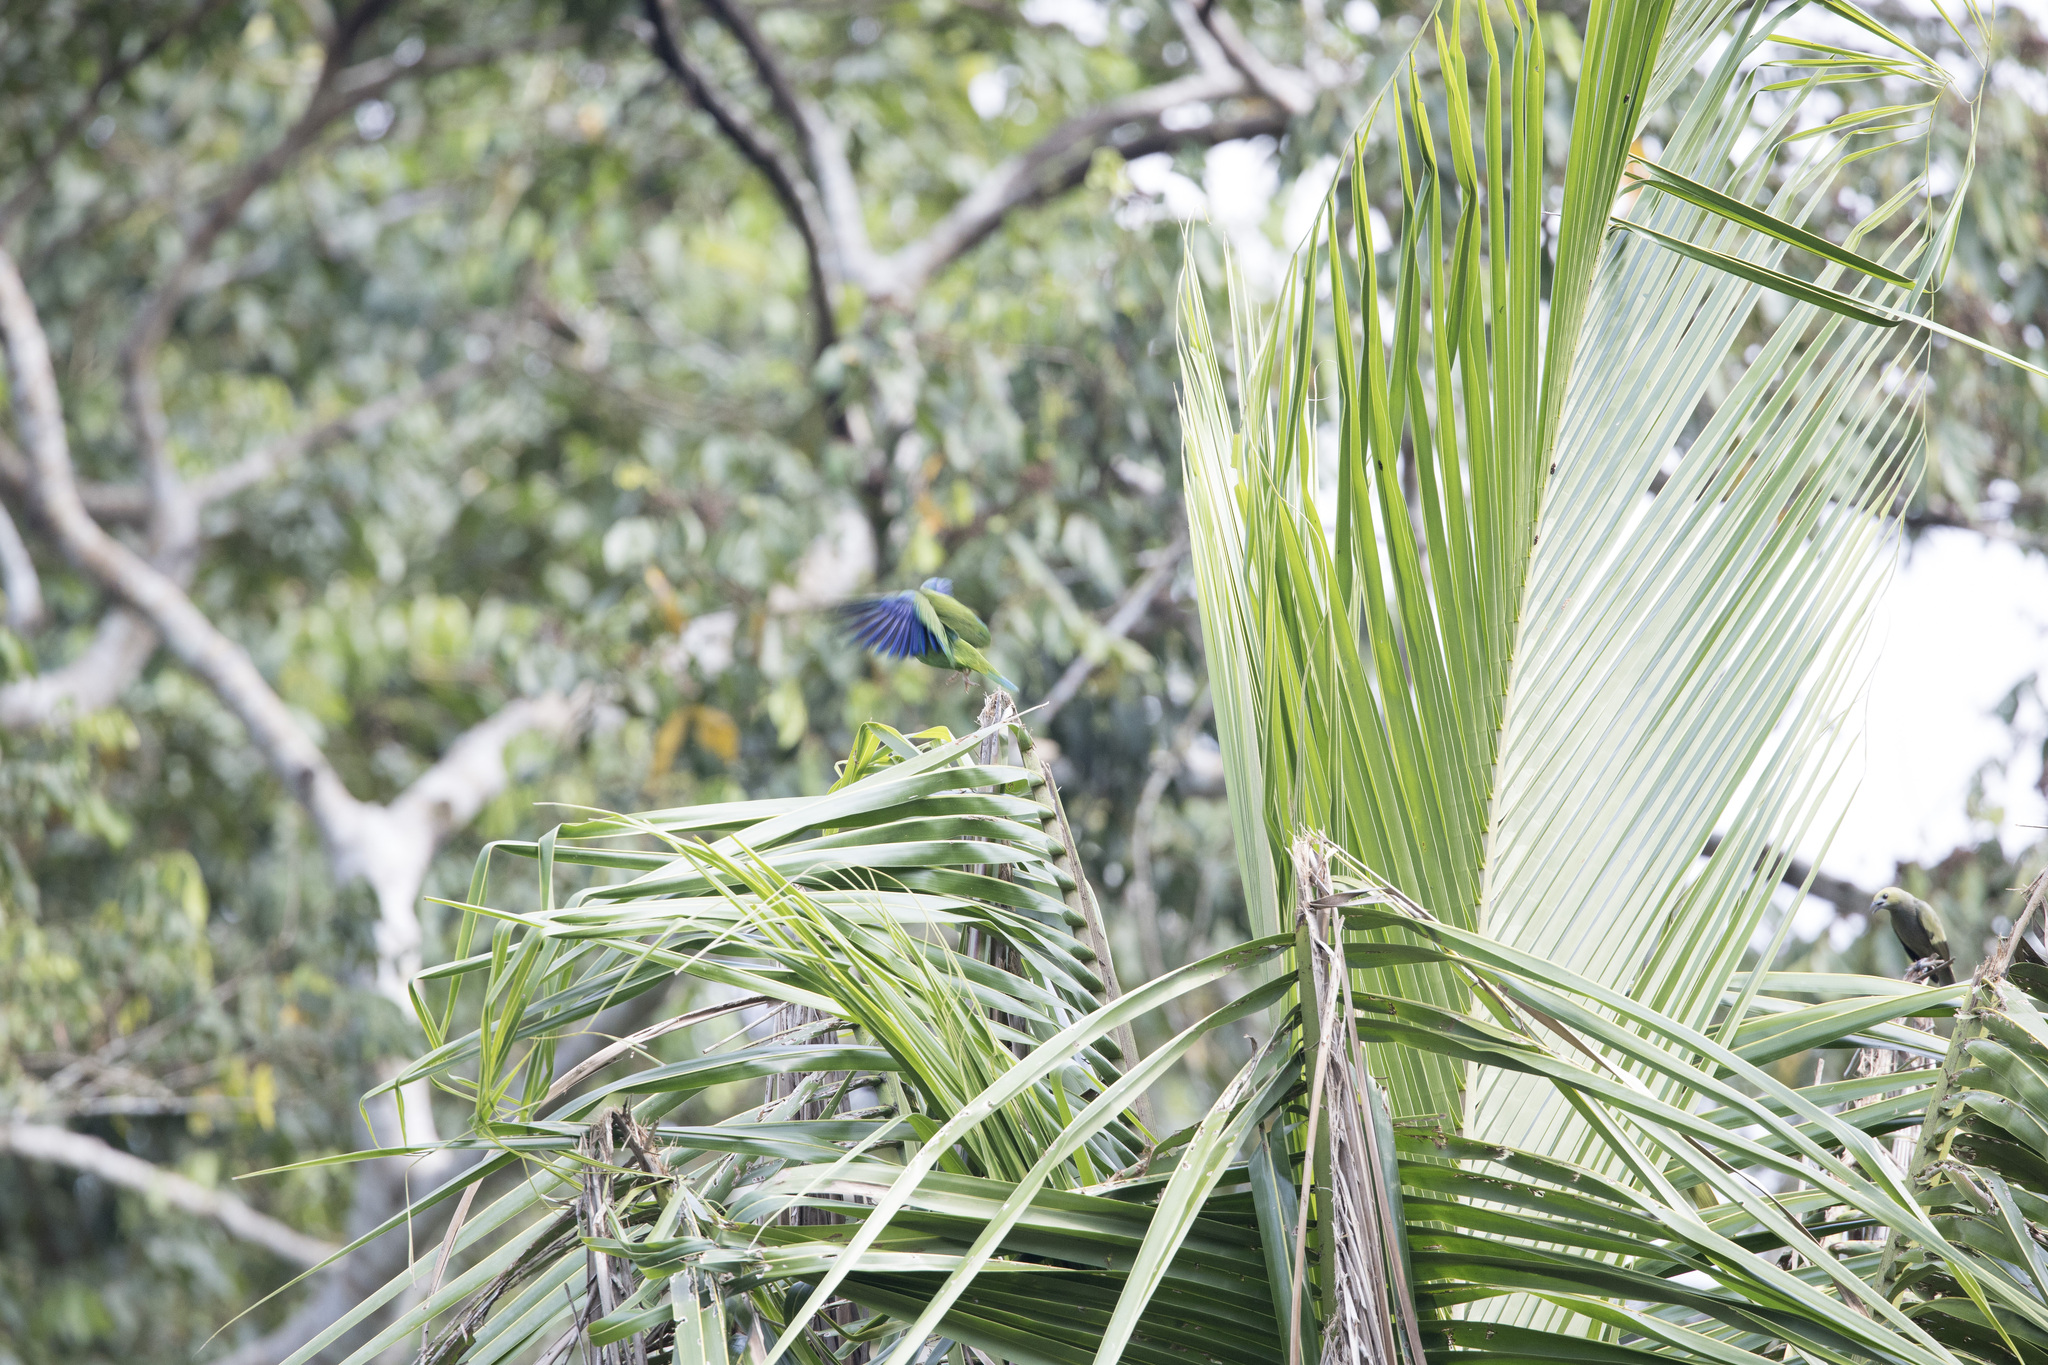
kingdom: Animalia
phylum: Chordata
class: Aves
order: Psittaciformes
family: Psittacidae
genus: Brotogeris
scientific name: Brotogeris cyanoptera
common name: Cobalt-winged parakeet
